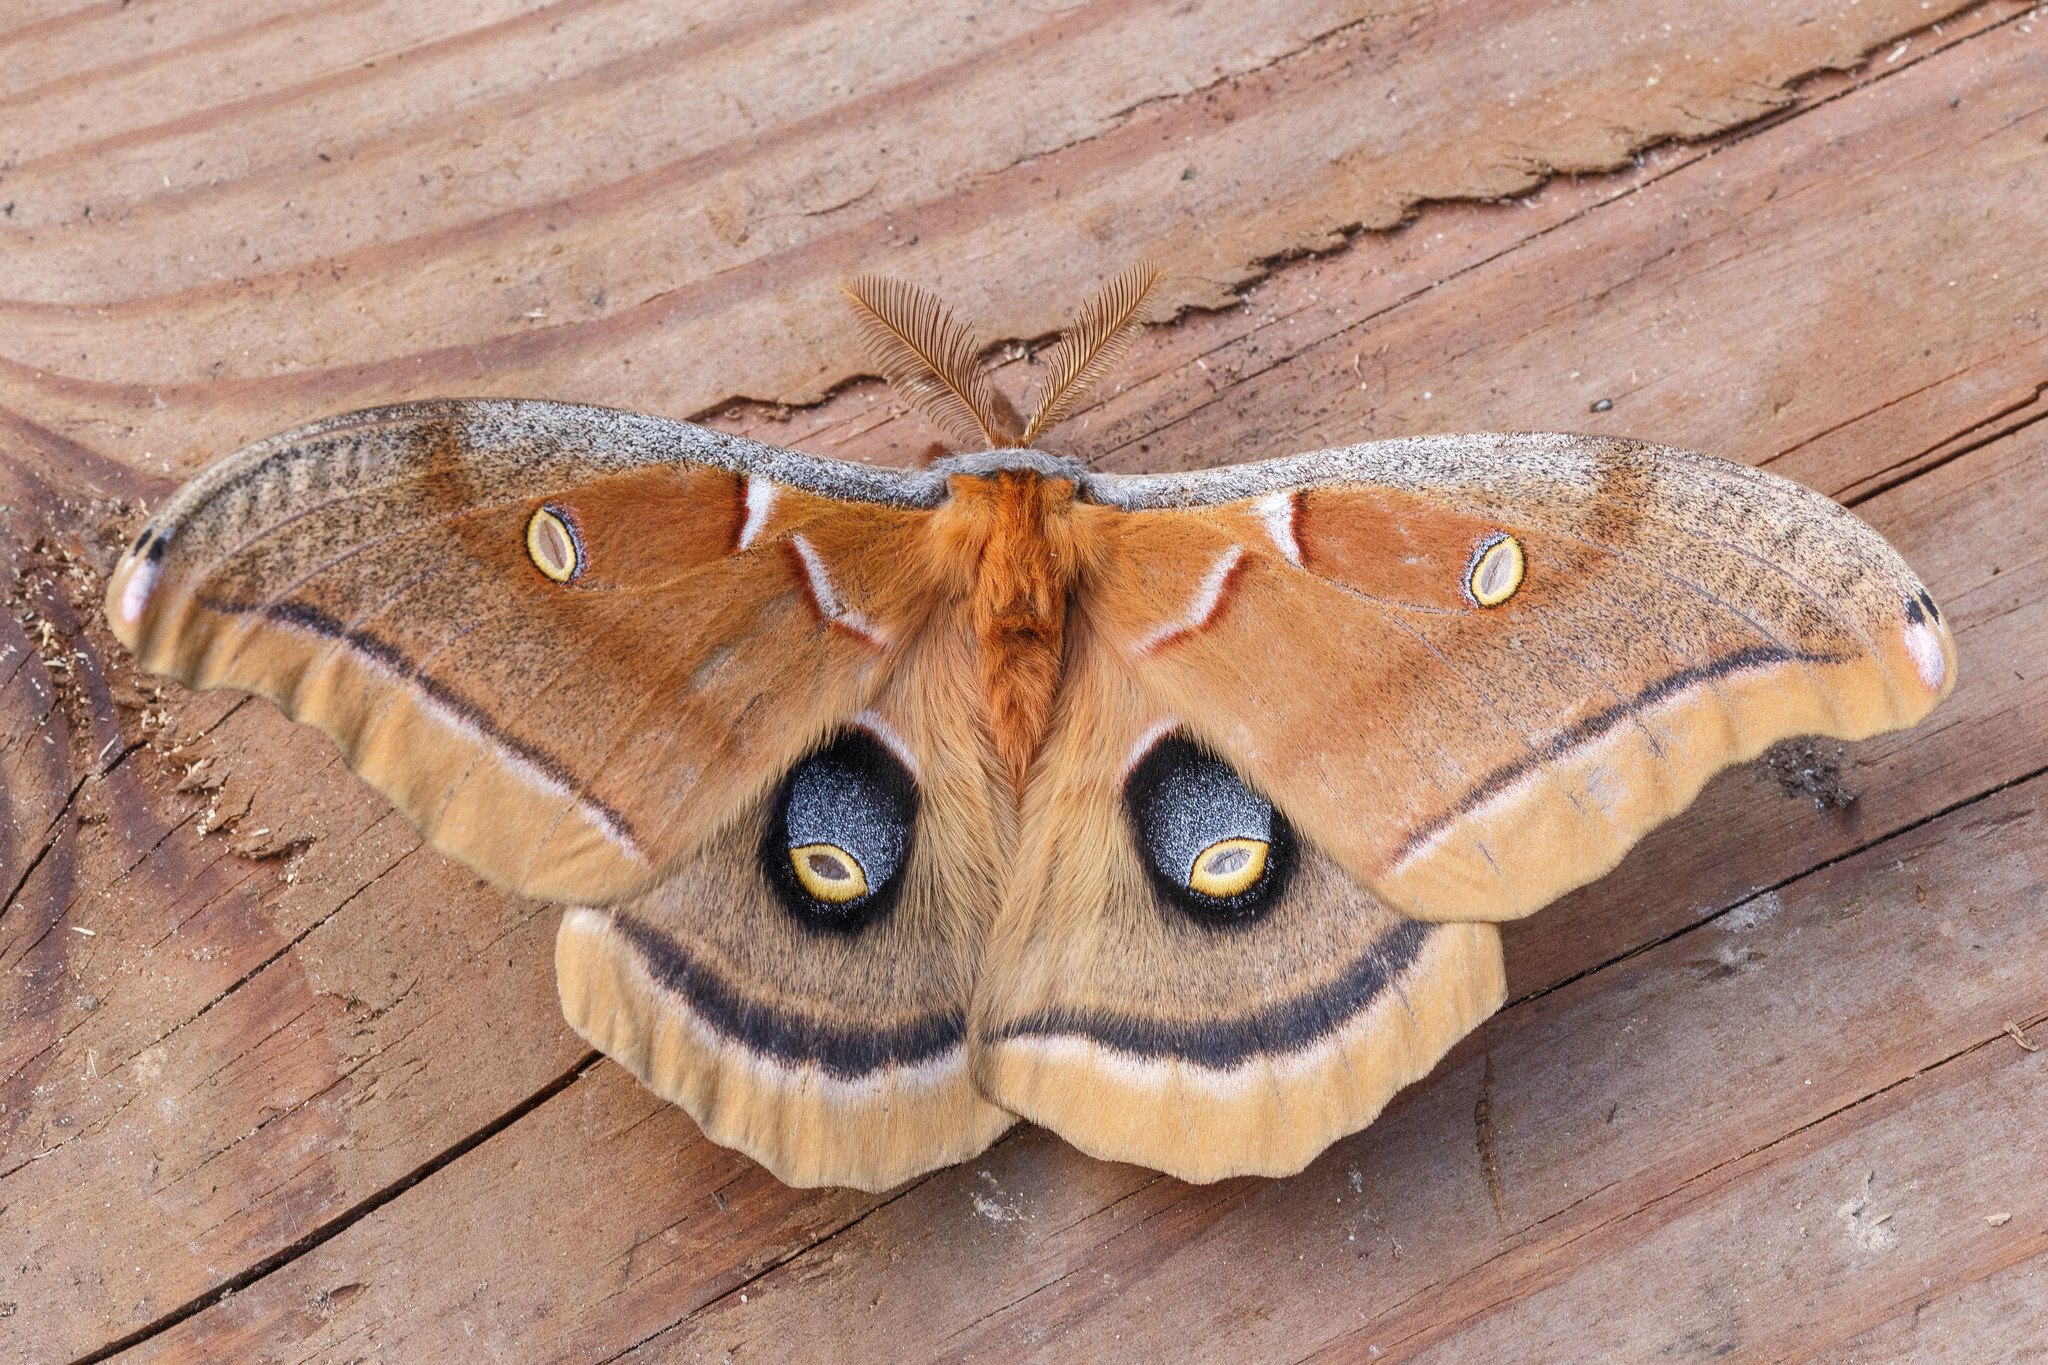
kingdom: Animalia
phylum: Arthropoda
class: Insecta
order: Lepidoptera
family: Saturniidae
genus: Antheraea
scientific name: Antheraea polyphemus
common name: Polyphemus moth
